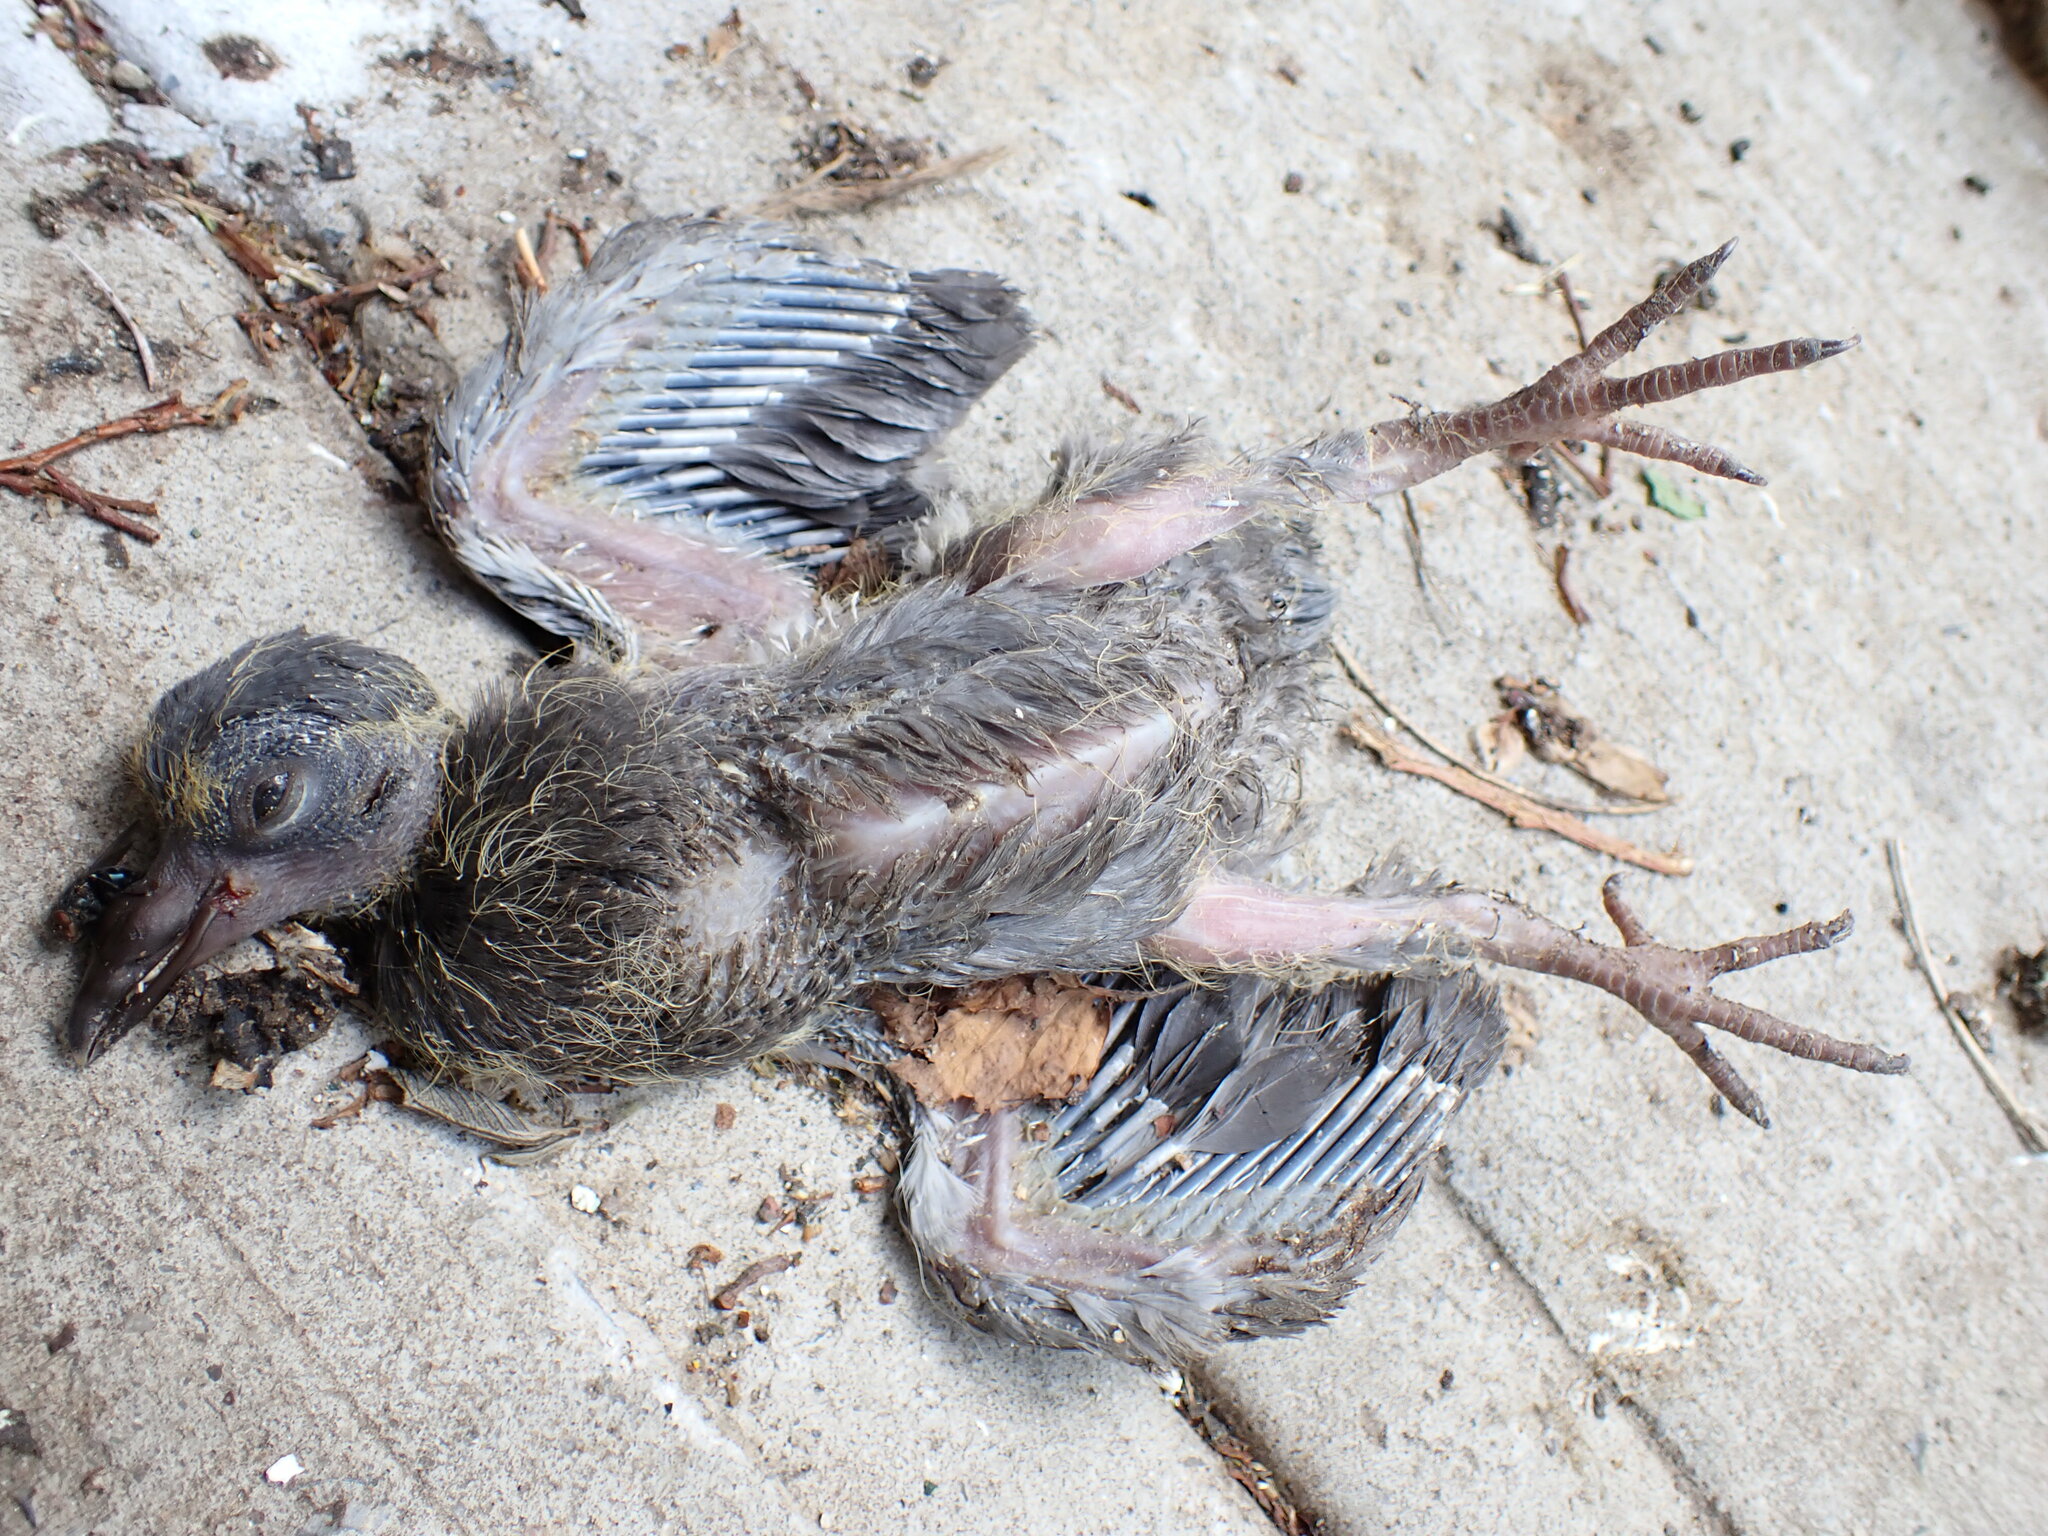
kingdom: Animalia
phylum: Chordata
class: Aves
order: Columbiformes
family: Columbidae
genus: Columba
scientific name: Columba livia
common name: Rock pigeon
